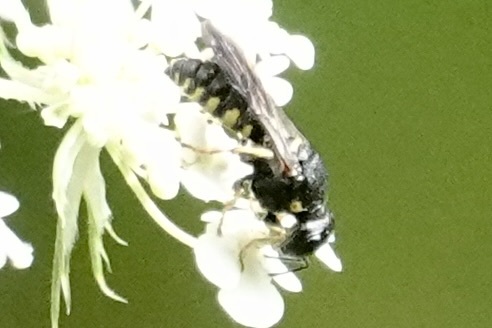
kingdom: Animalia
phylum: Arthropoda
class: Insecta
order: Hymenoptera
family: Crabronidae
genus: Anacrabro
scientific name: Anacrabro ocellatus
